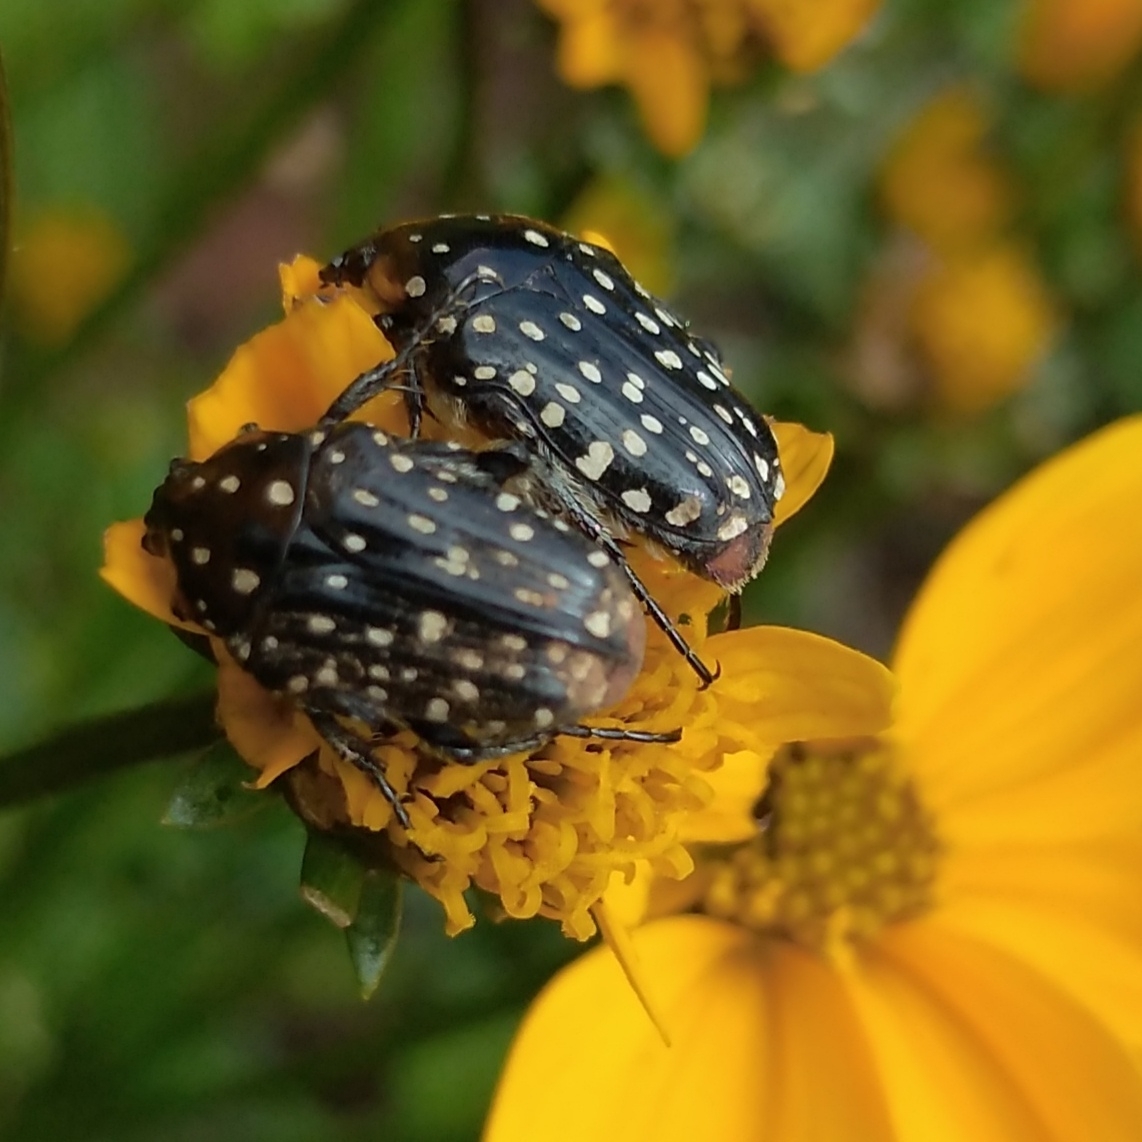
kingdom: Animalia
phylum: Arthropoda
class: Insecta
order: Coleoptera
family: Scarabaeidae
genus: Oxythyrea
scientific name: Oxythyrea
